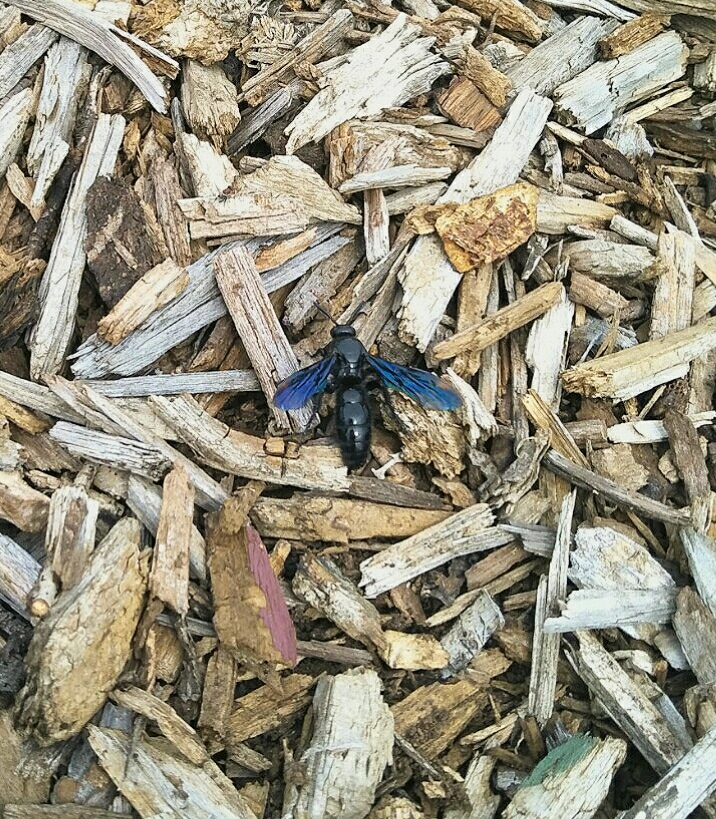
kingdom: Animalia
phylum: Arthropoda
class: Insecta
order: Hymenoptera
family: Scoliidae
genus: Austroscolia
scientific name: Austroscolia
